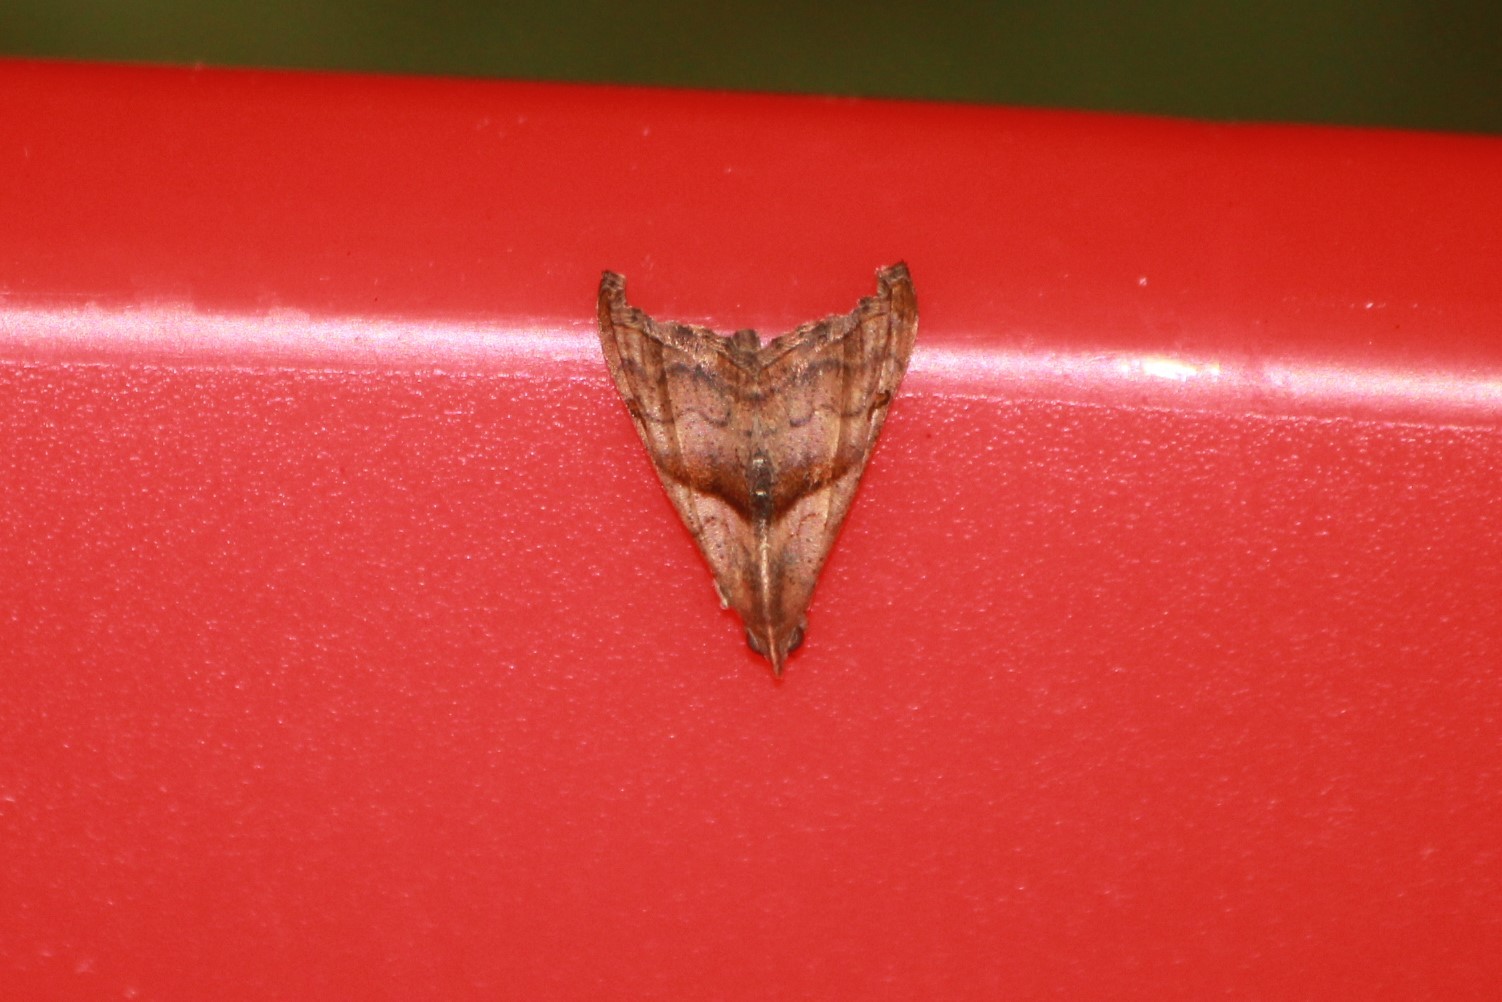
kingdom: Animalia
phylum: Arthropoda
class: Insecta
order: Lepidoptera
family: Erebidae
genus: Palthis
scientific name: Palthis angulalis
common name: Dark-spotted palthis moth
